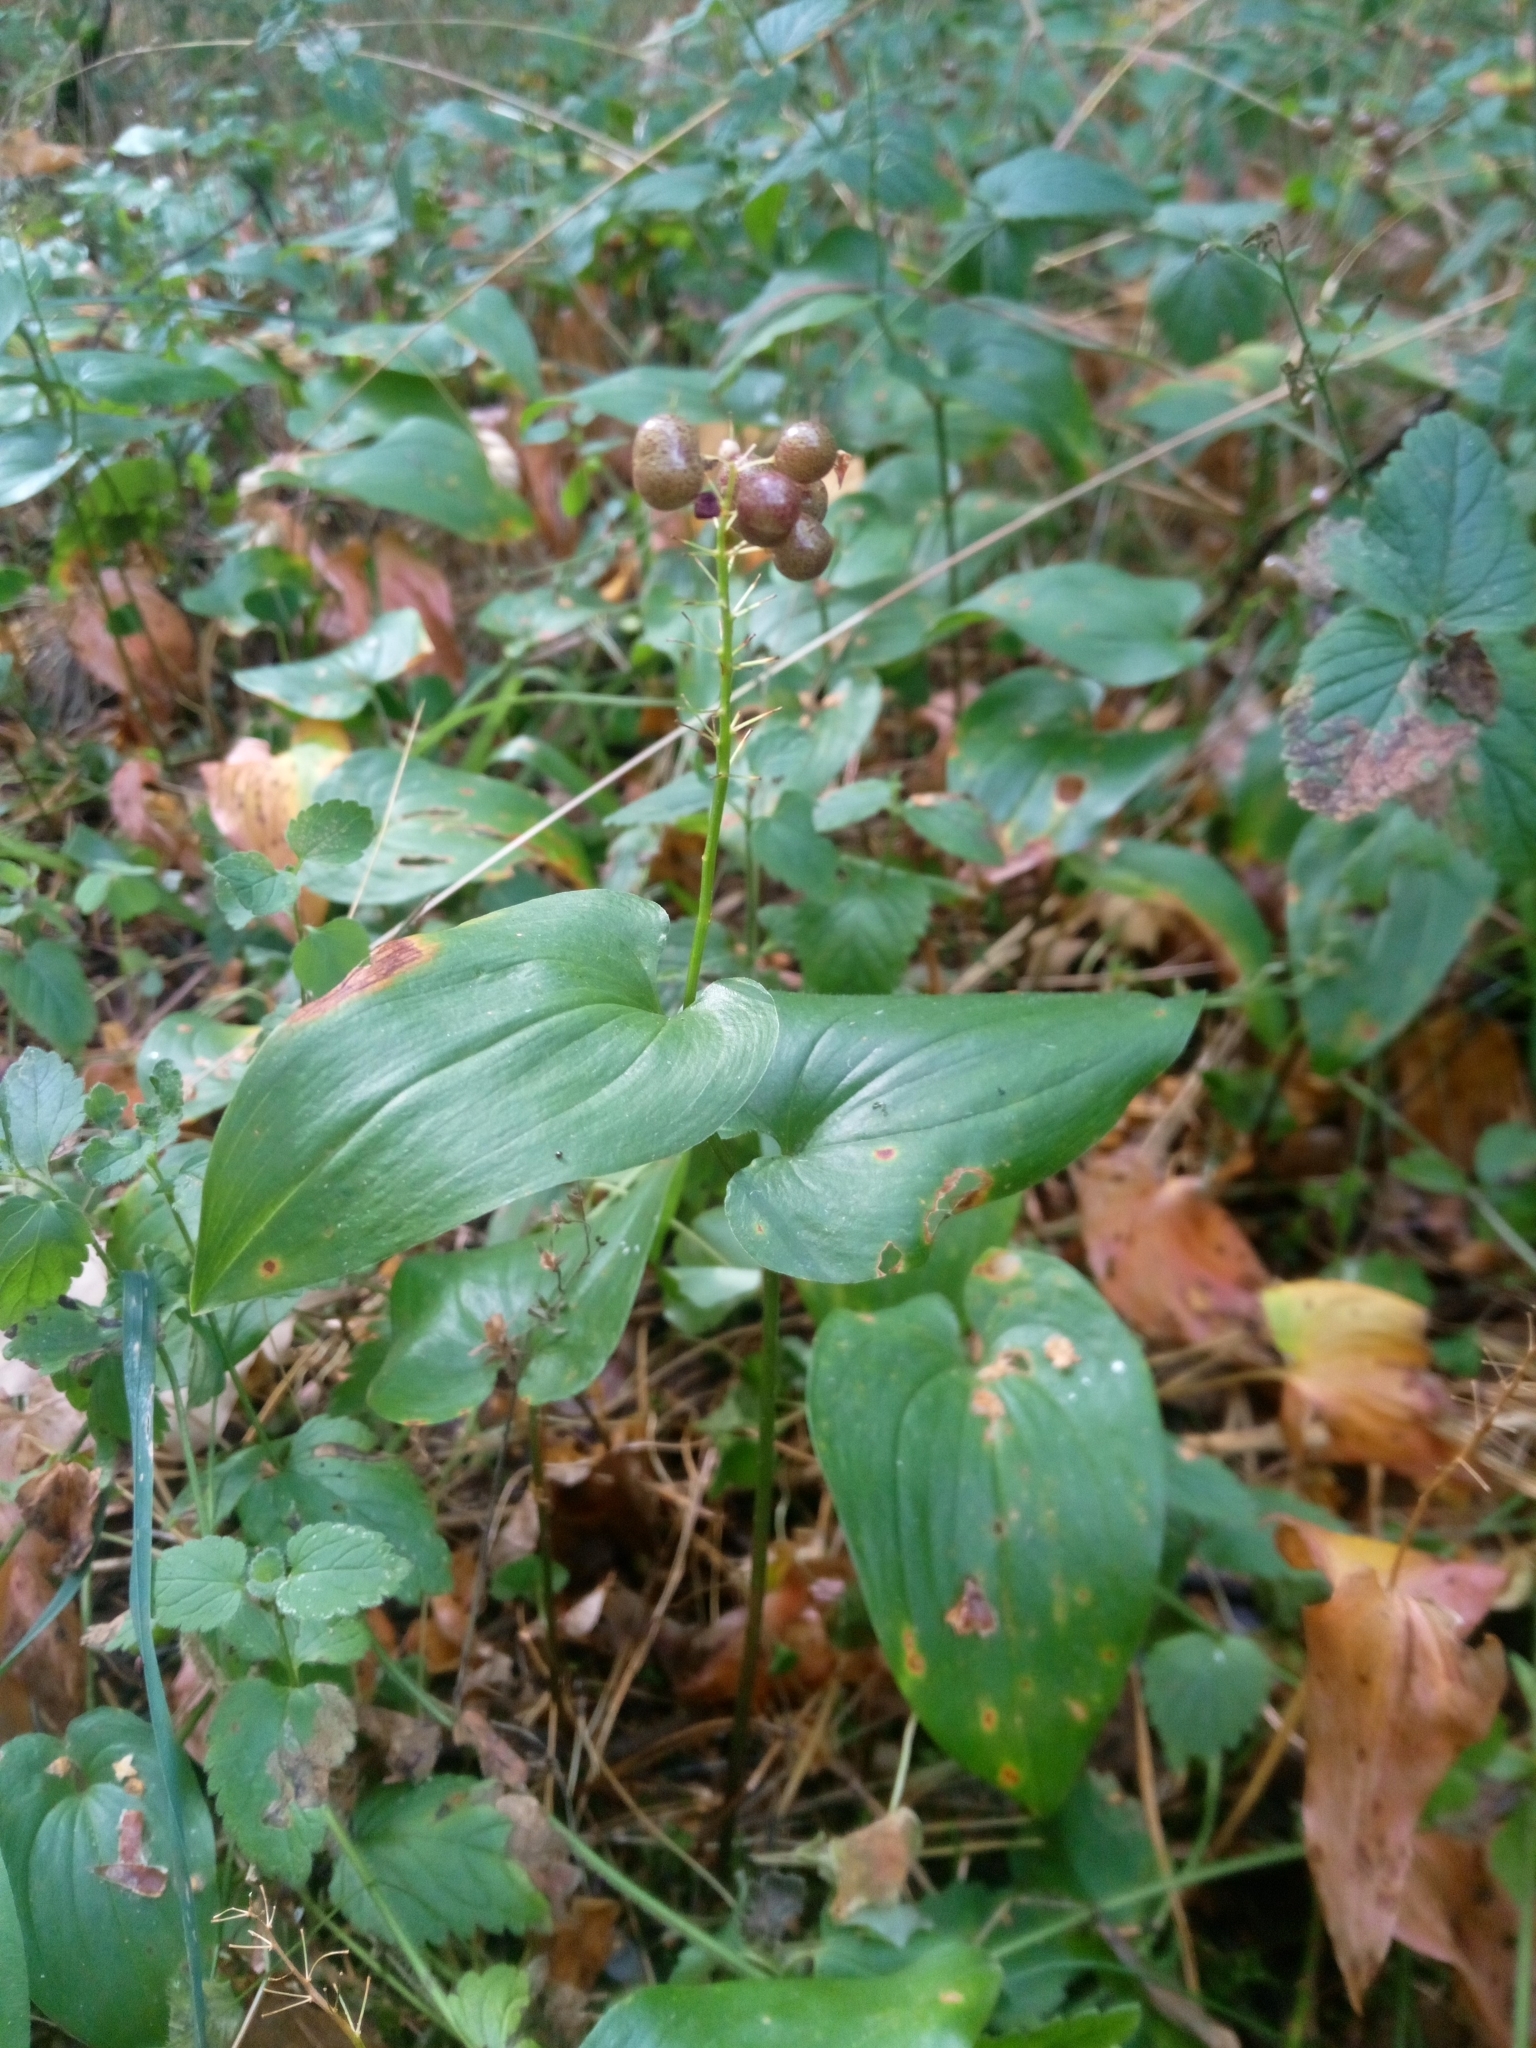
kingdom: Plantae
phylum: Tracheophyta
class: Liliopsida
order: Asparagales
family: Asparagaceae
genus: Maianthemum
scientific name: Maianthemum bifolium
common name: May lily
